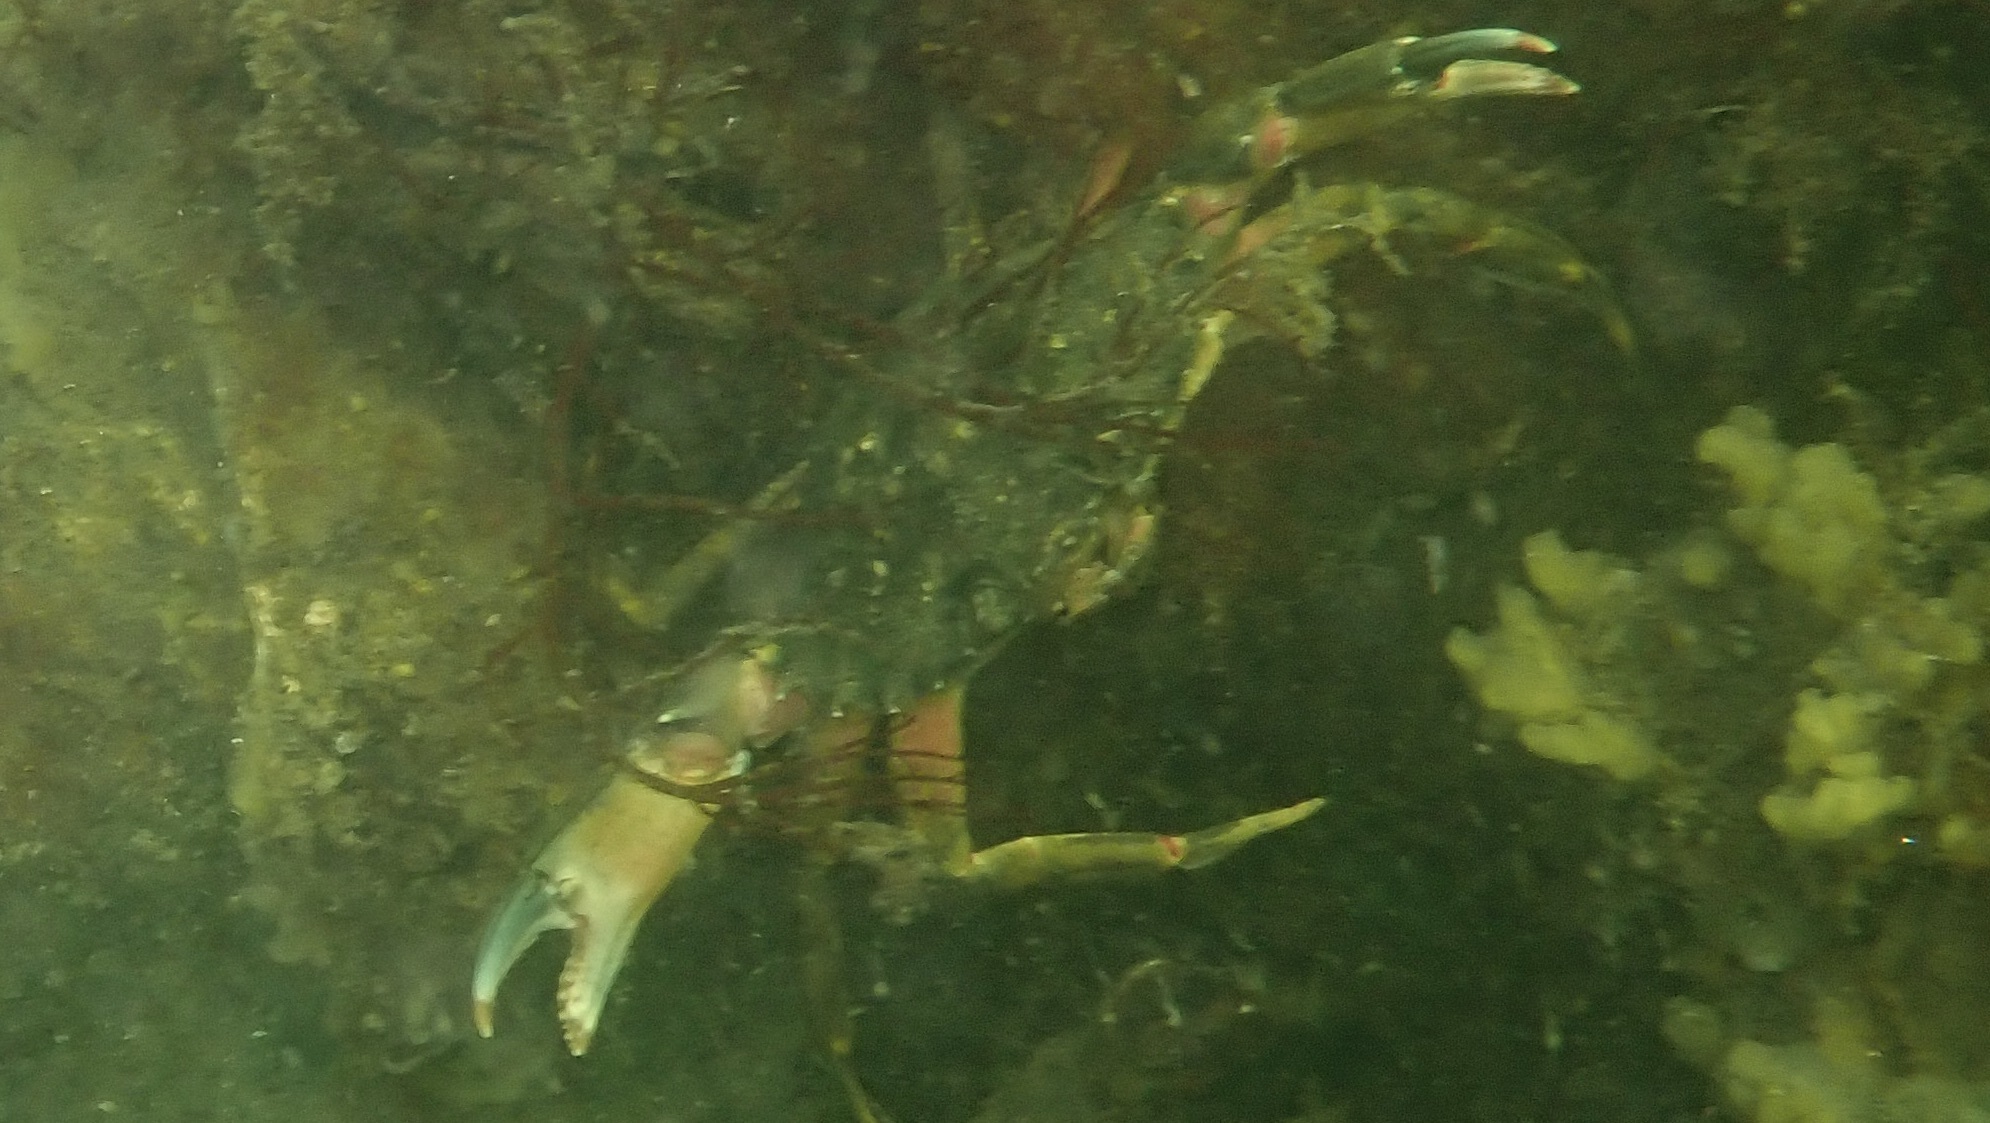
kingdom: Animalia
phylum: Arthropoda
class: Malacostraca
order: Decapoda
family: Carcinidae
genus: Carcinus
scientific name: Carcinus maenas
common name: European green crab
